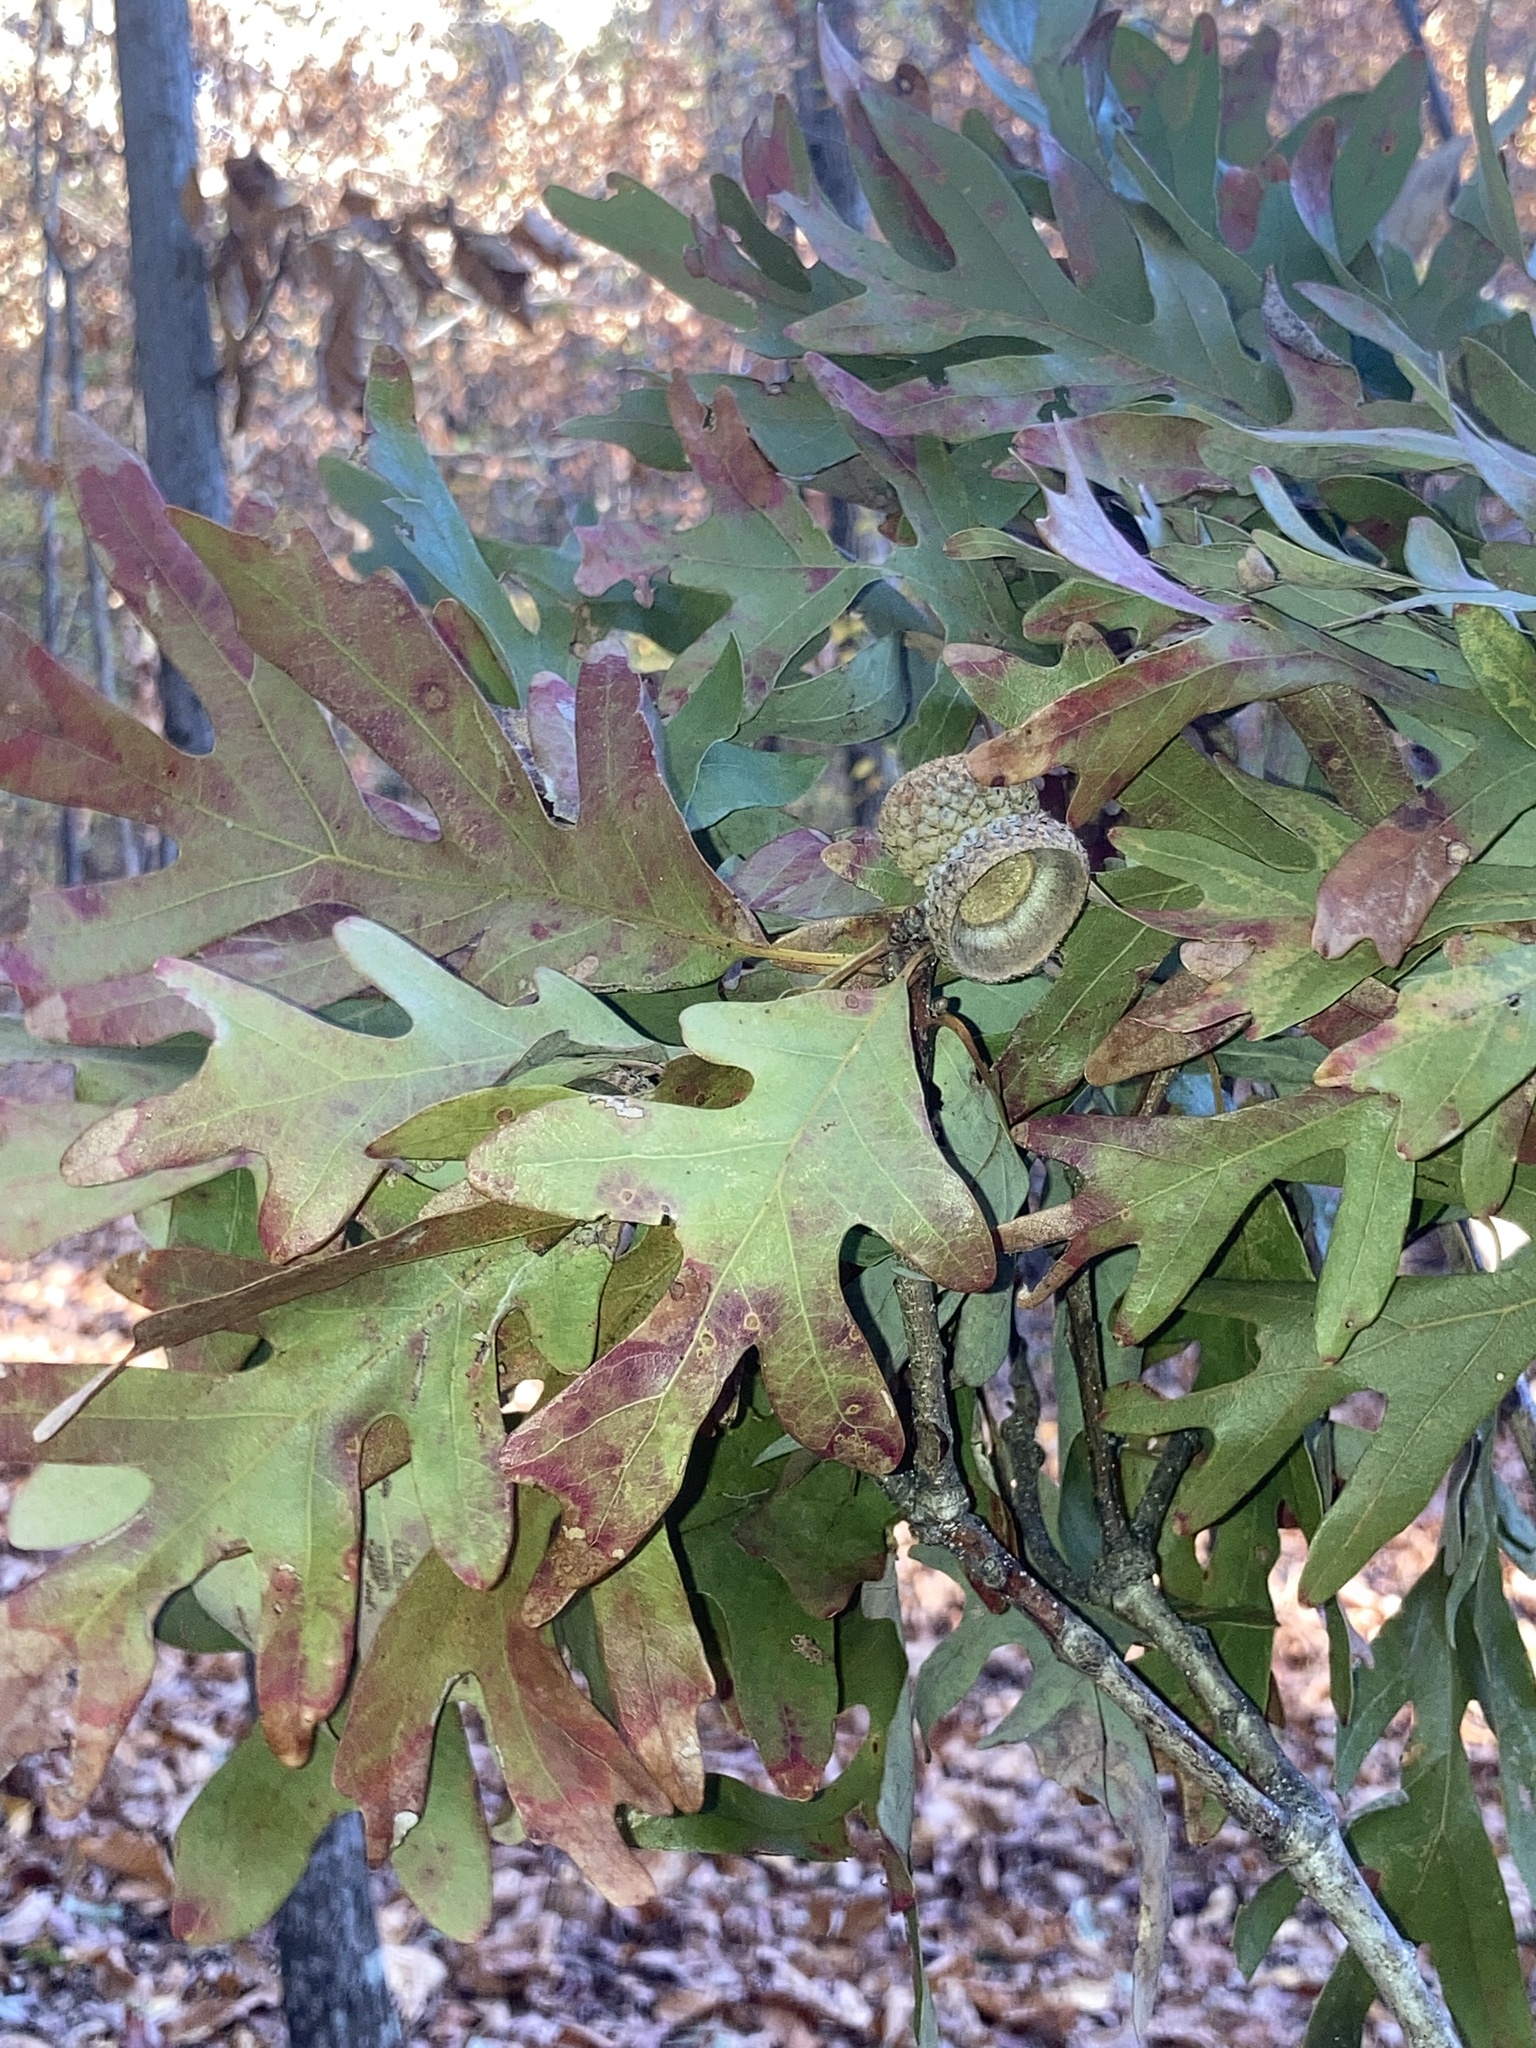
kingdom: Plantae
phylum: Tracheophyta
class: Magnoliopsida
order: Fagales
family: Fagaceae
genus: Quercus
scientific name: Quercus alba
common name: White oak
